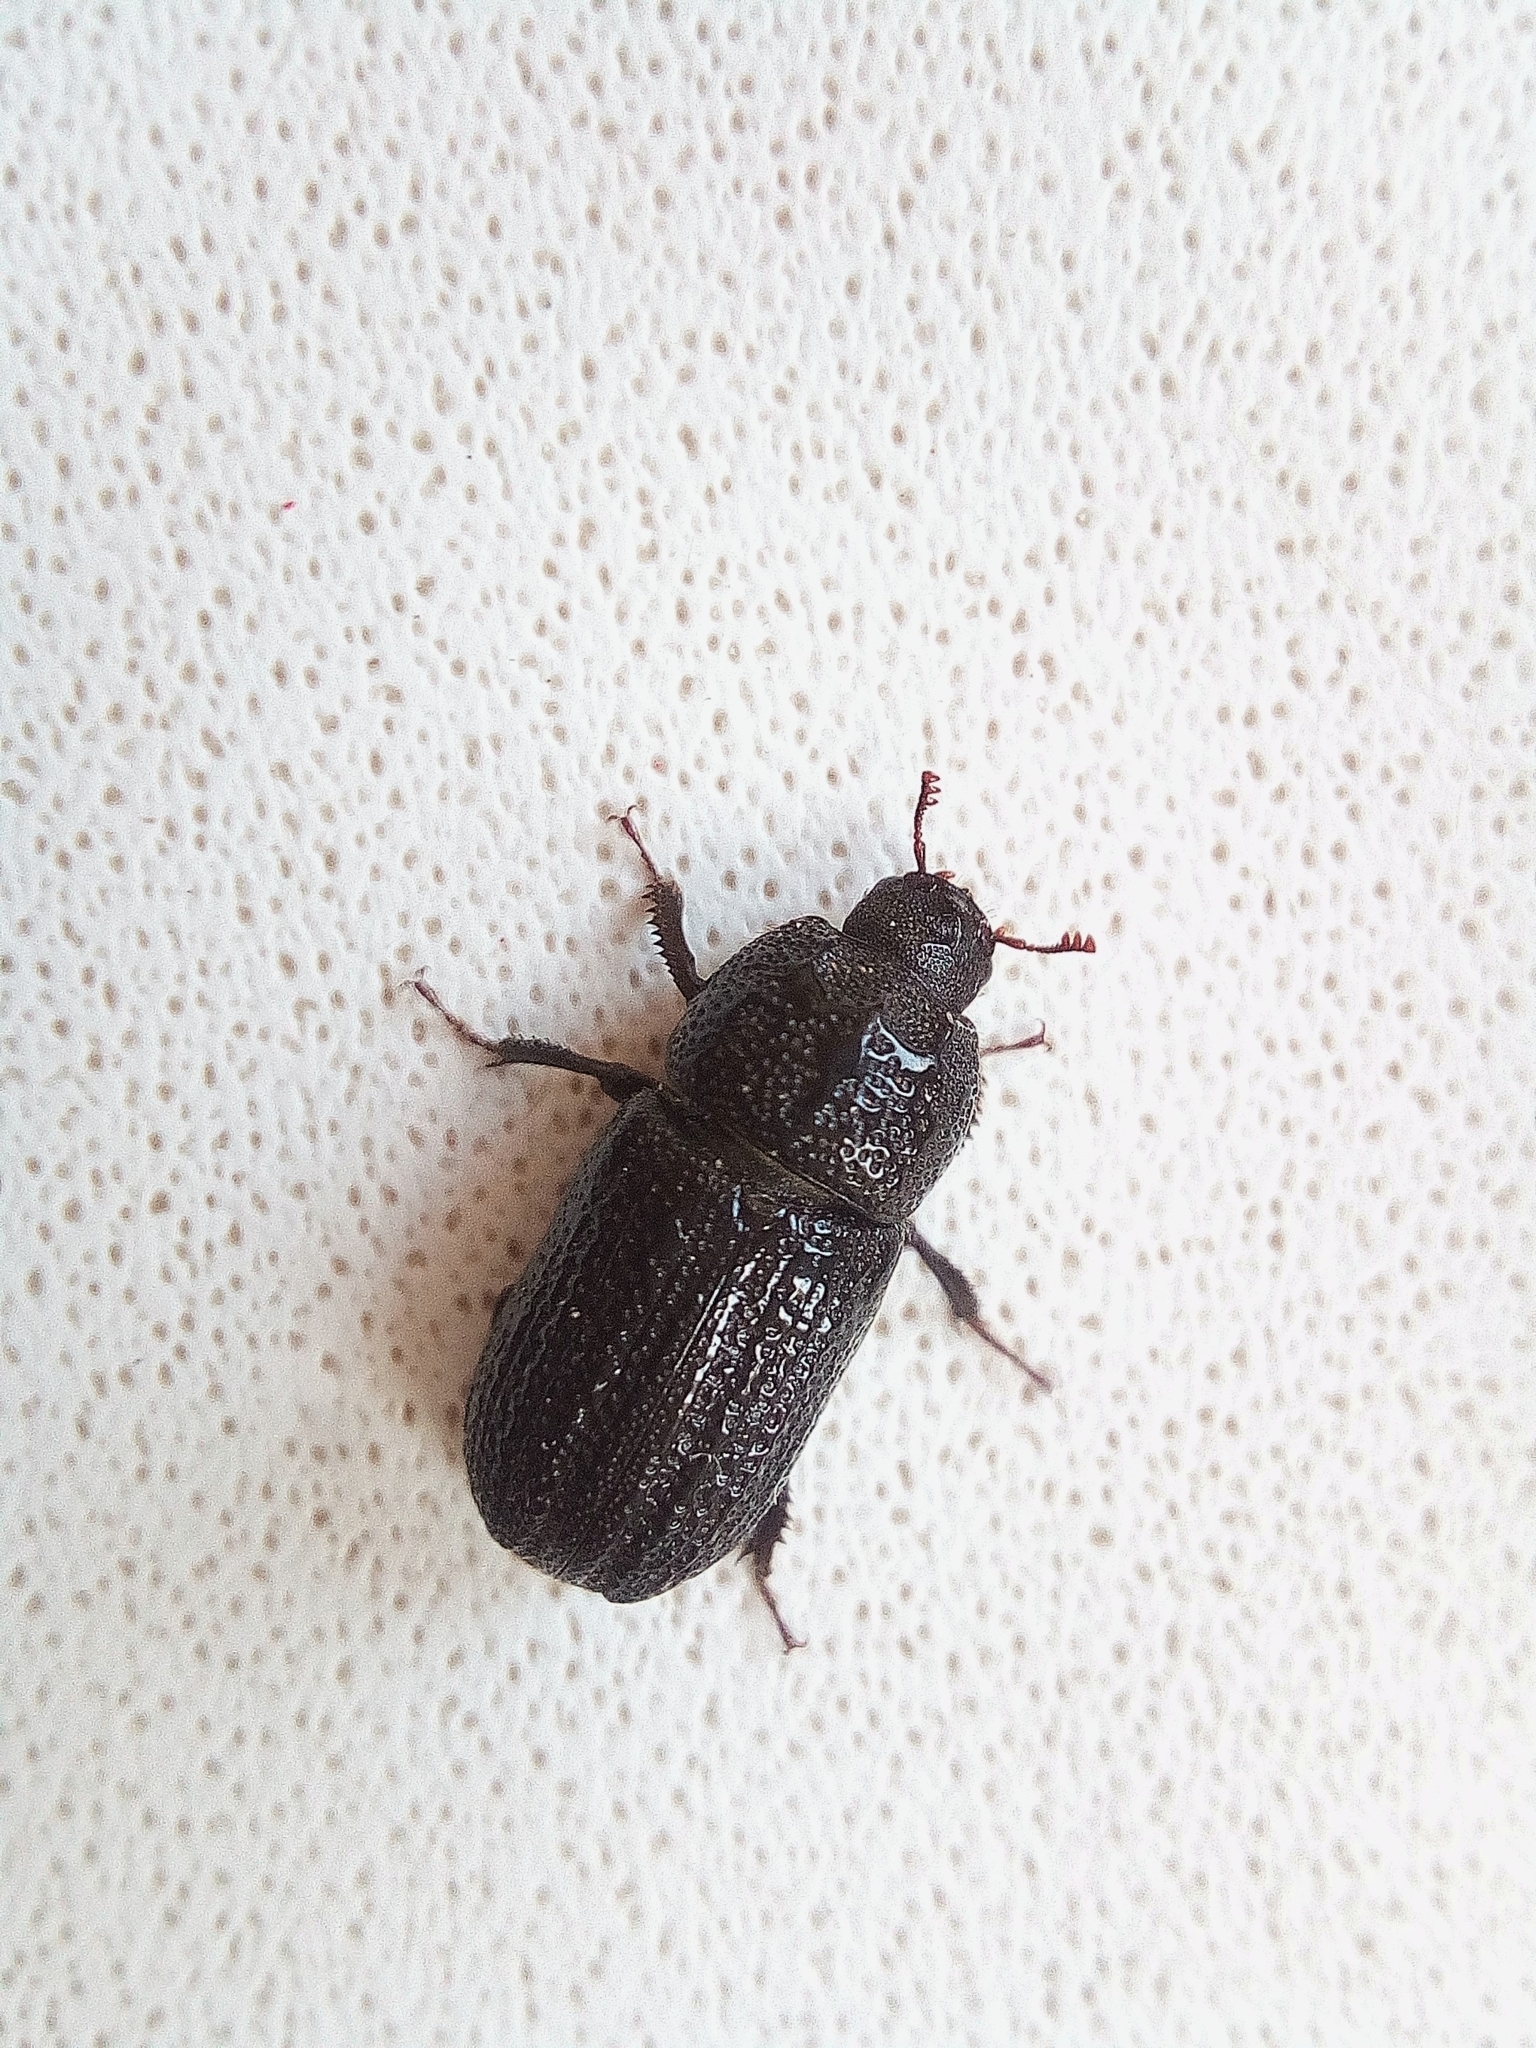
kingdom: Animalia
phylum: Arthropoda
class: Insecta
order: Coleoptera
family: Lucanidae
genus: Sinodendron
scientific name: Sinodendron cylindricum
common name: Rhinoceros beetle
